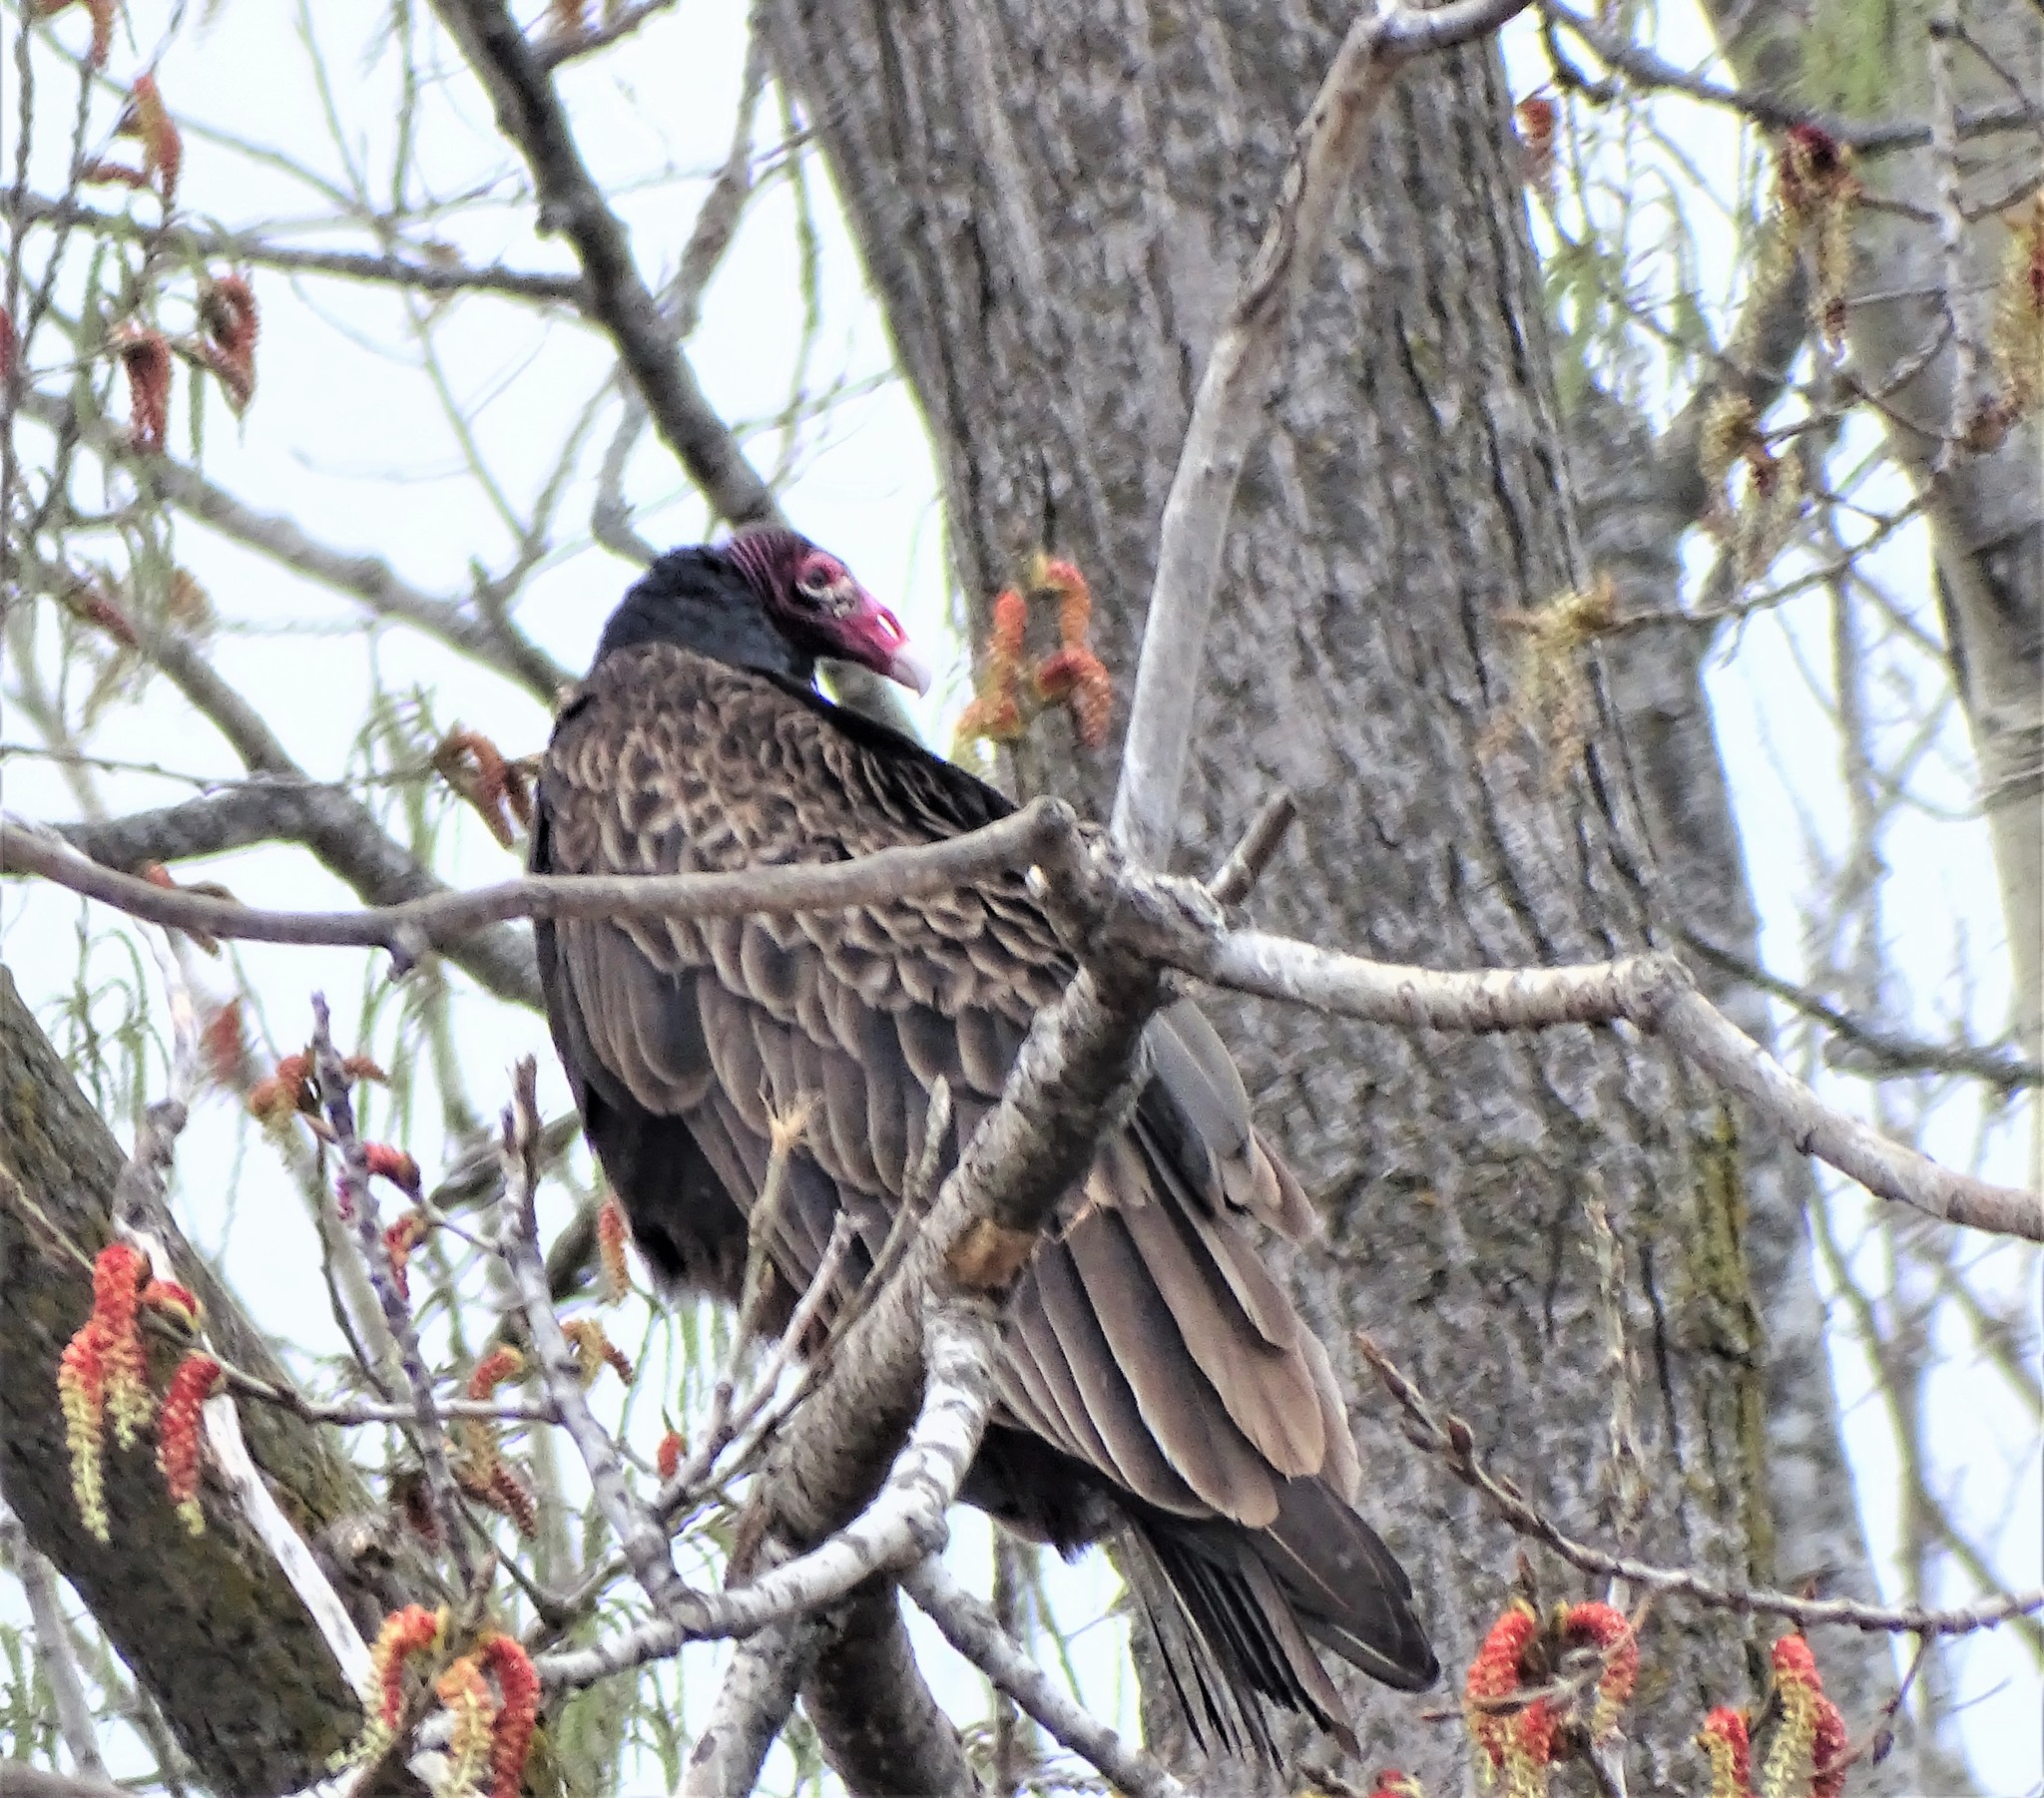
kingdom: Animalia
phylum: Chordata
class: Aves
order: Accipitriformes
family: Cathartidae
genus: Cathartes
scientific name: Cathartes aura
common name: Turkey vulture
